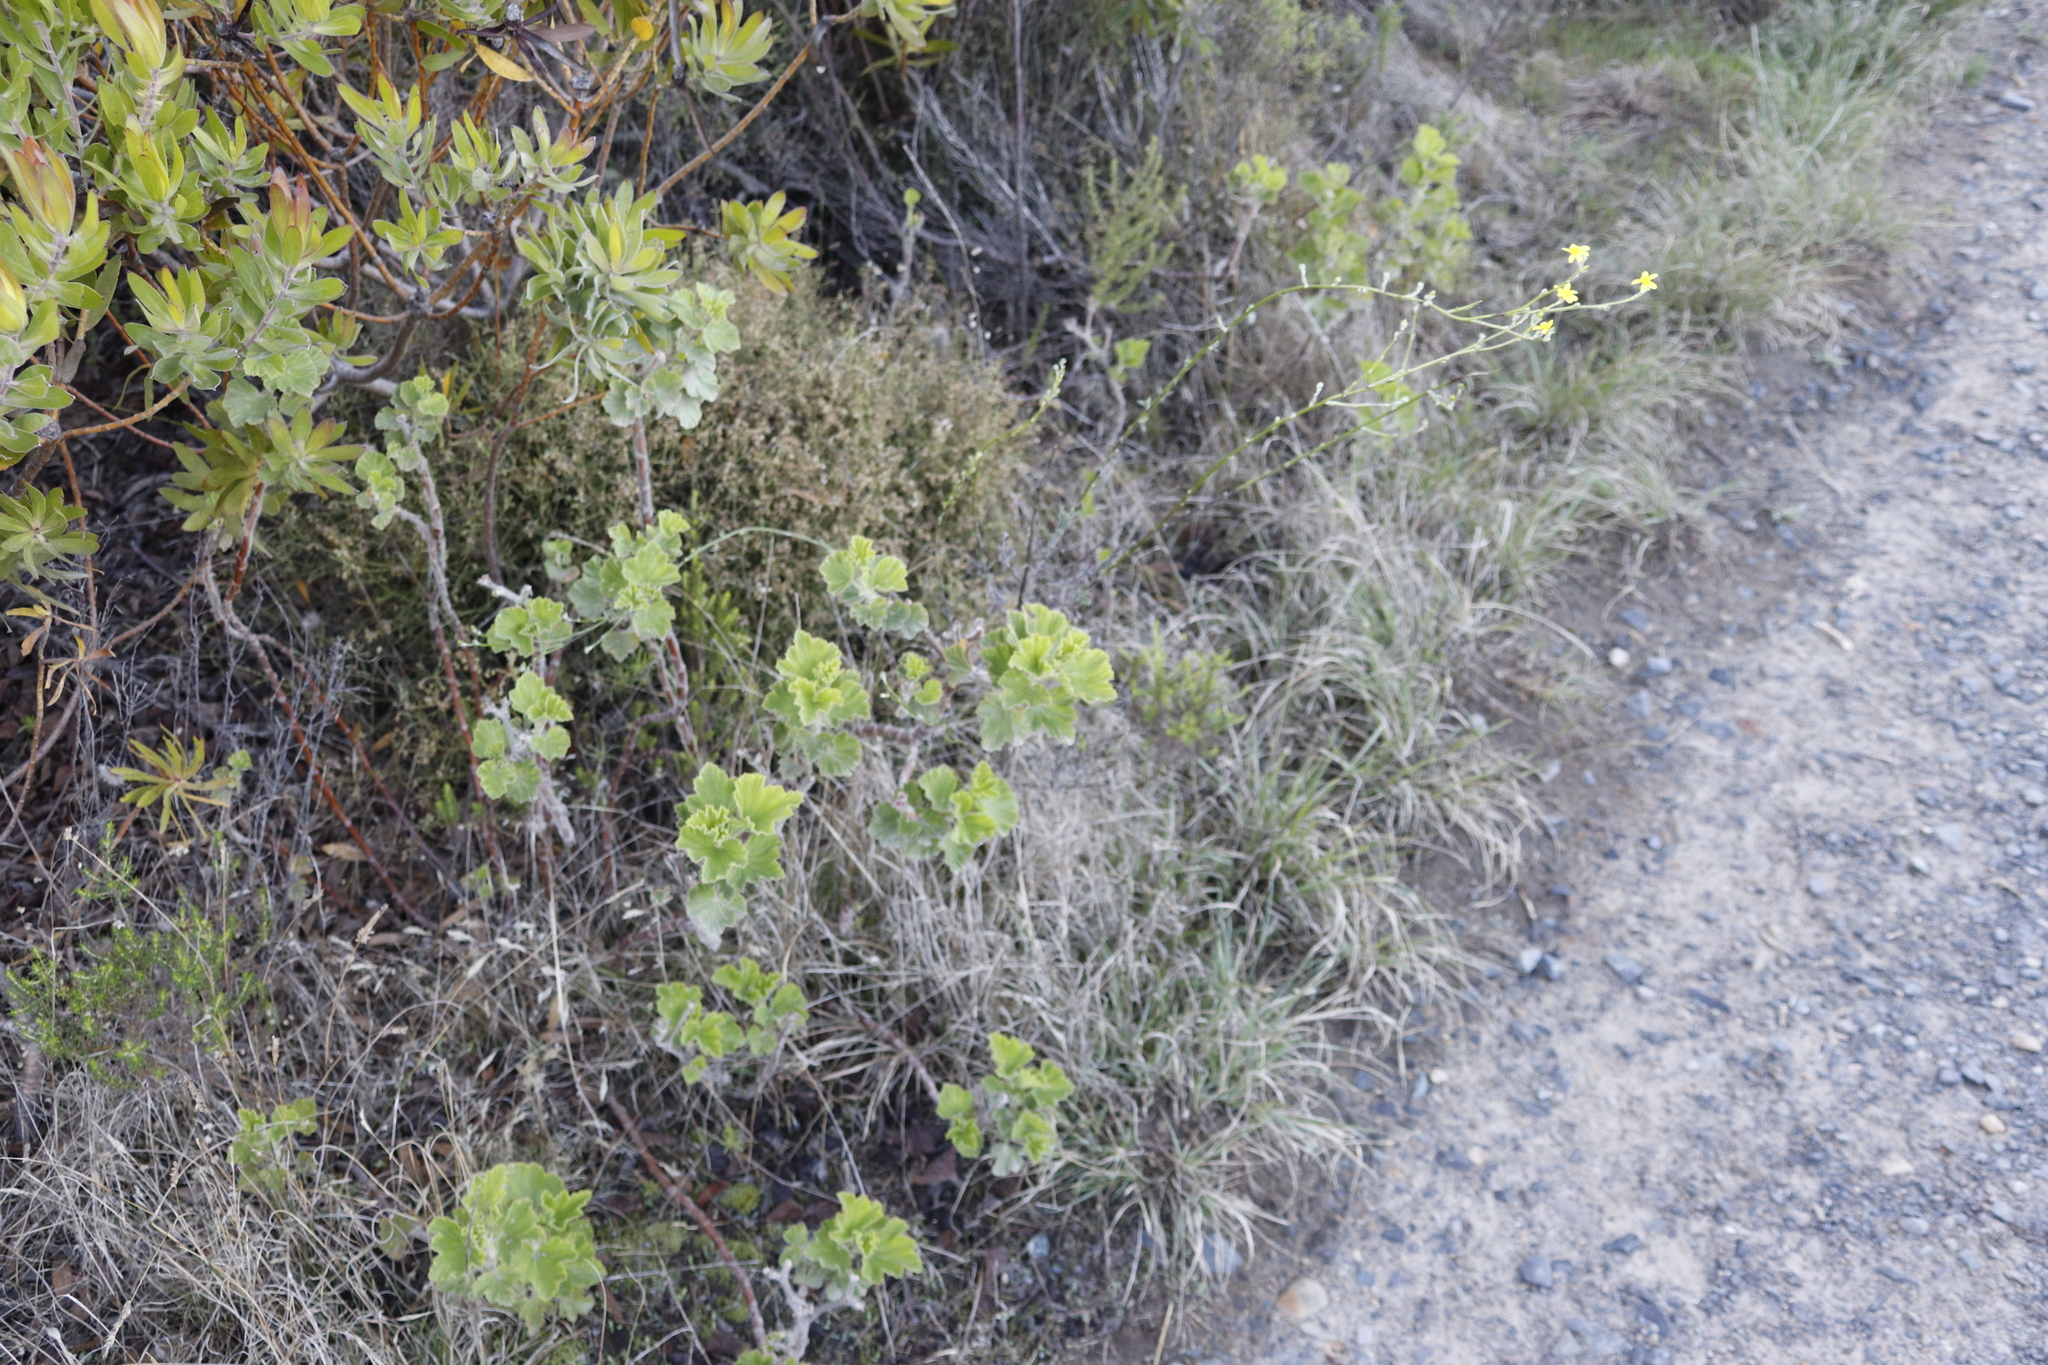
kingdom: Plantae
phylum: Tracheophyta
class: Magnoliopsida
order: Asterales
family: Asteraceae
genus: Senecio
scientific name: Senecio pubigerus
